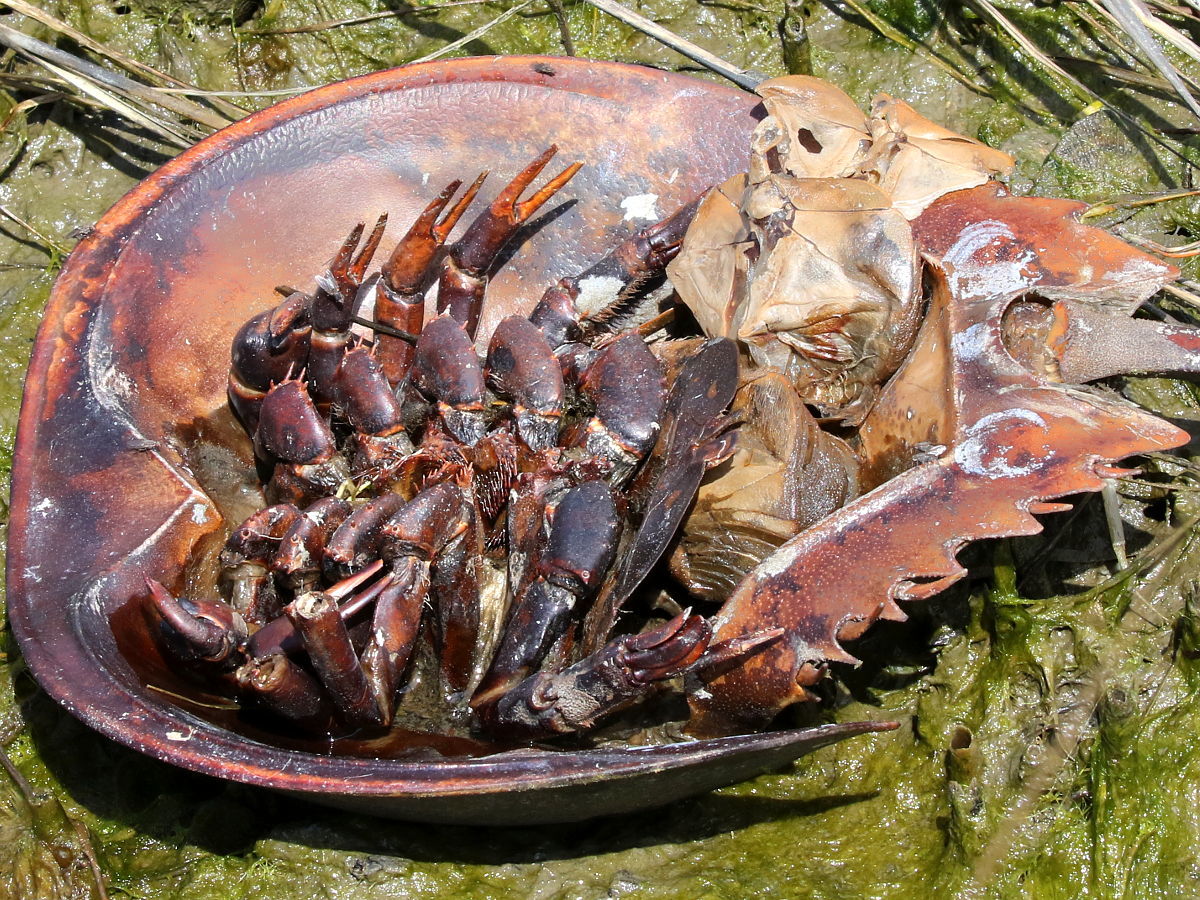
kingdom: Animalia
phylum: Arthropoda
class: Merostomata
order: Xiphosurida
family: Limulidae
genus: Limulus
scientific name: Limulus polyphemus
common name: Horseshoe crab
